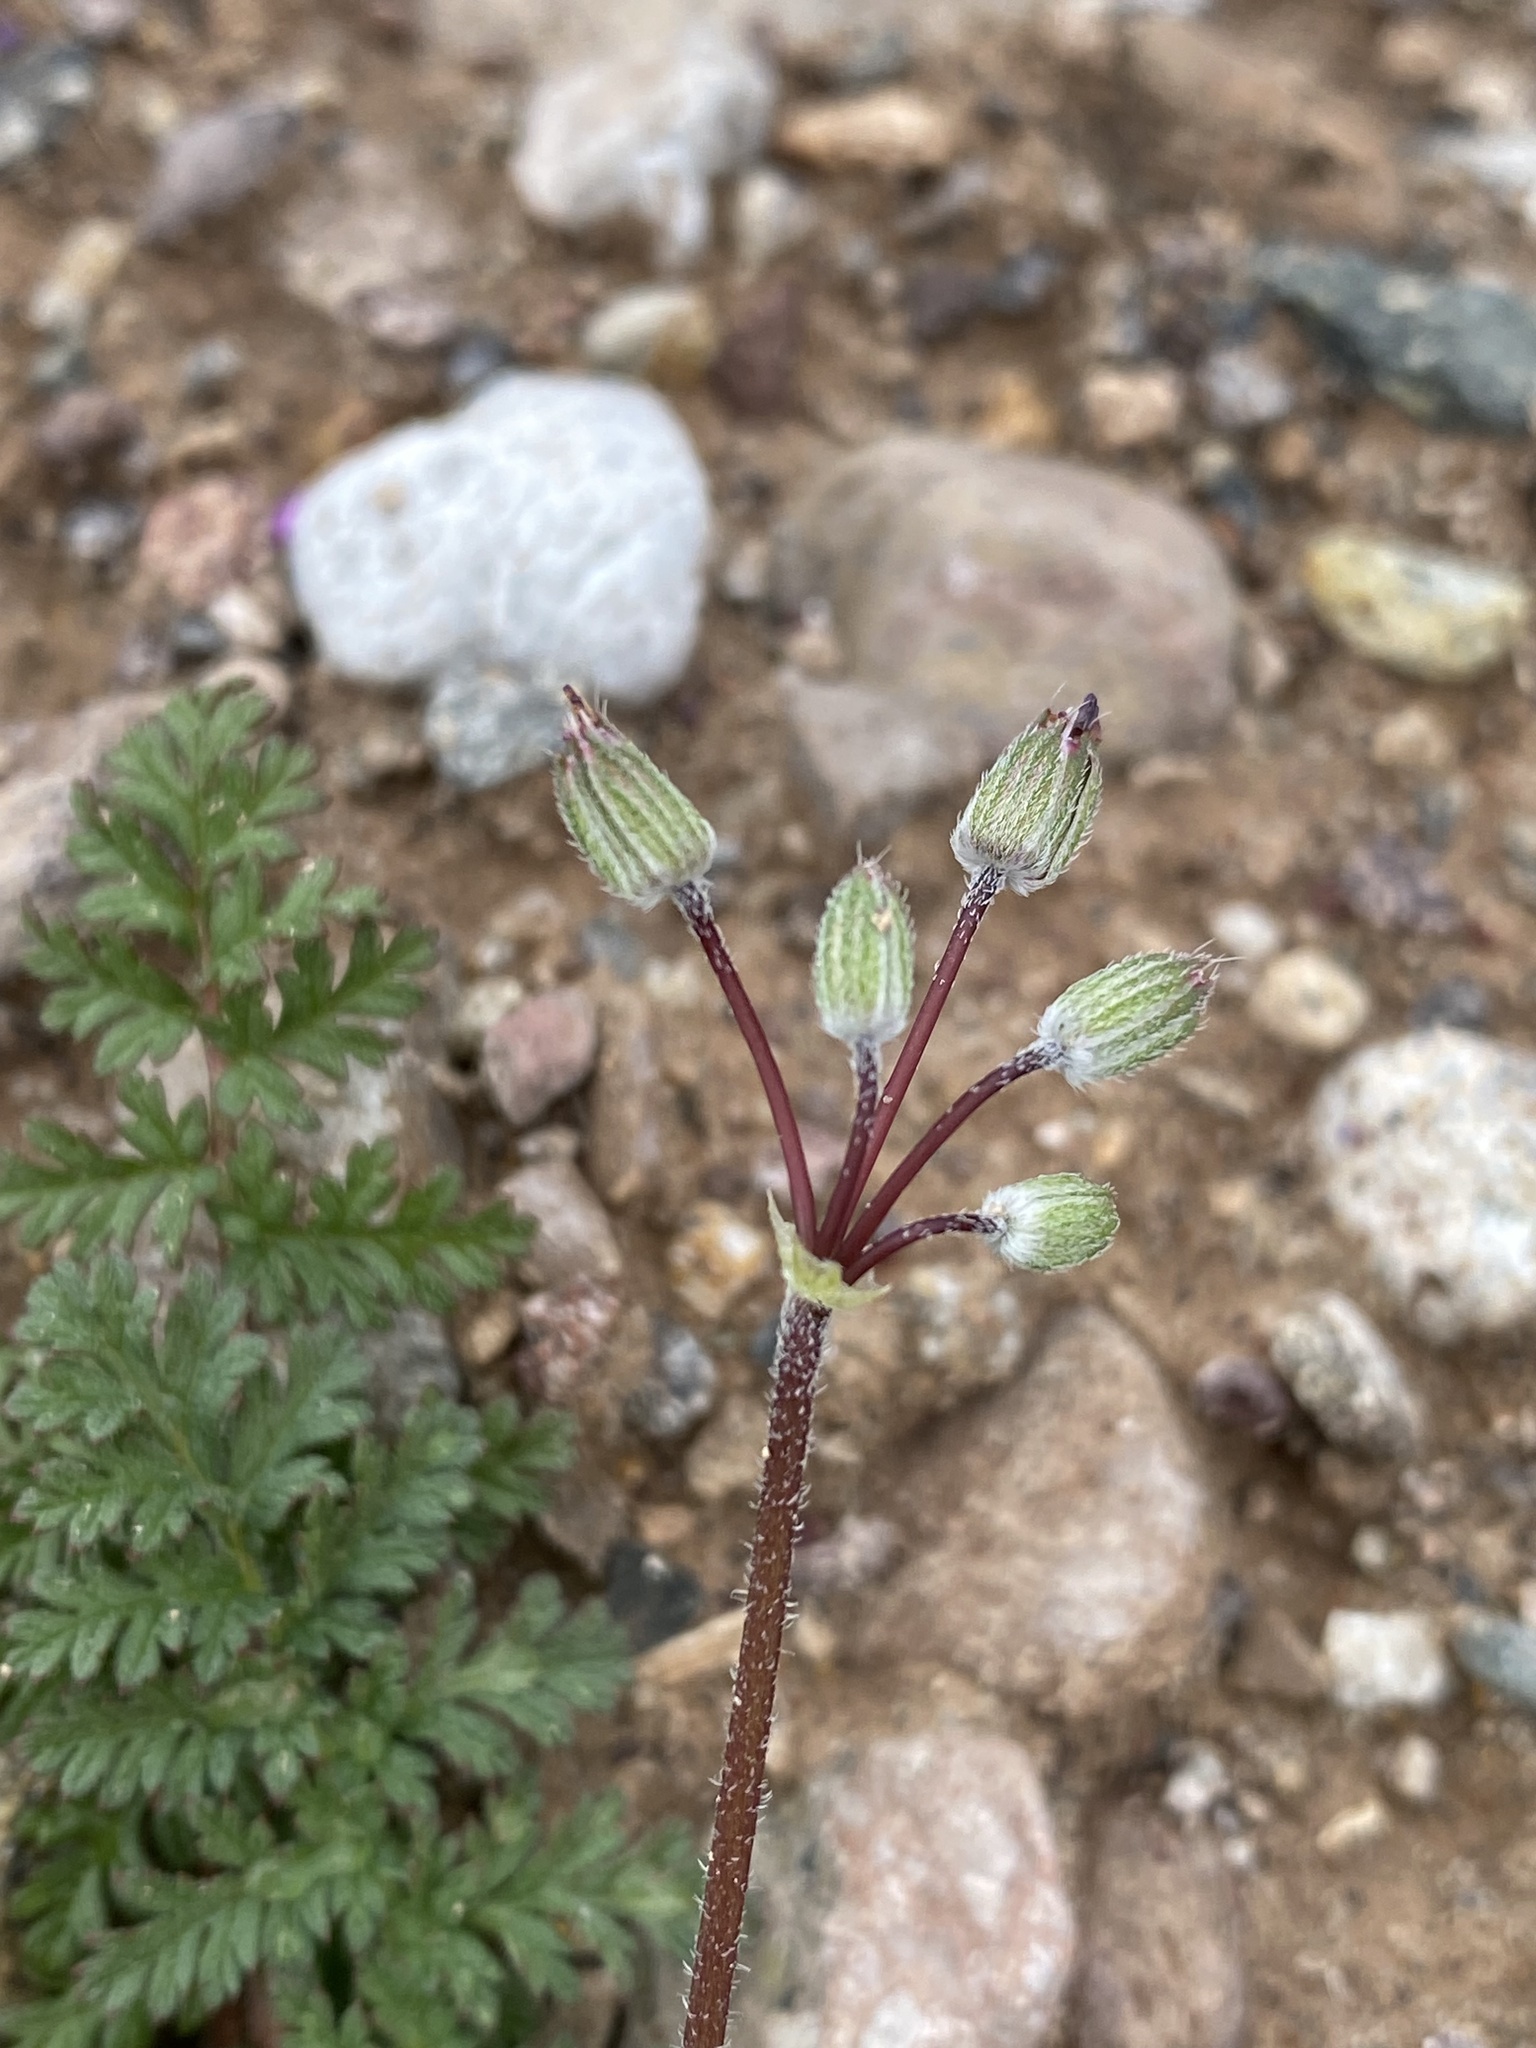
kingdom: Plantae
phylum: Tracheophyta
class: Magnoliopsida
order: Geraniales
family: Geraniaceae
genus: Erodium
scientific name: Erodium cicutarium
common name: Common stork's-bill
